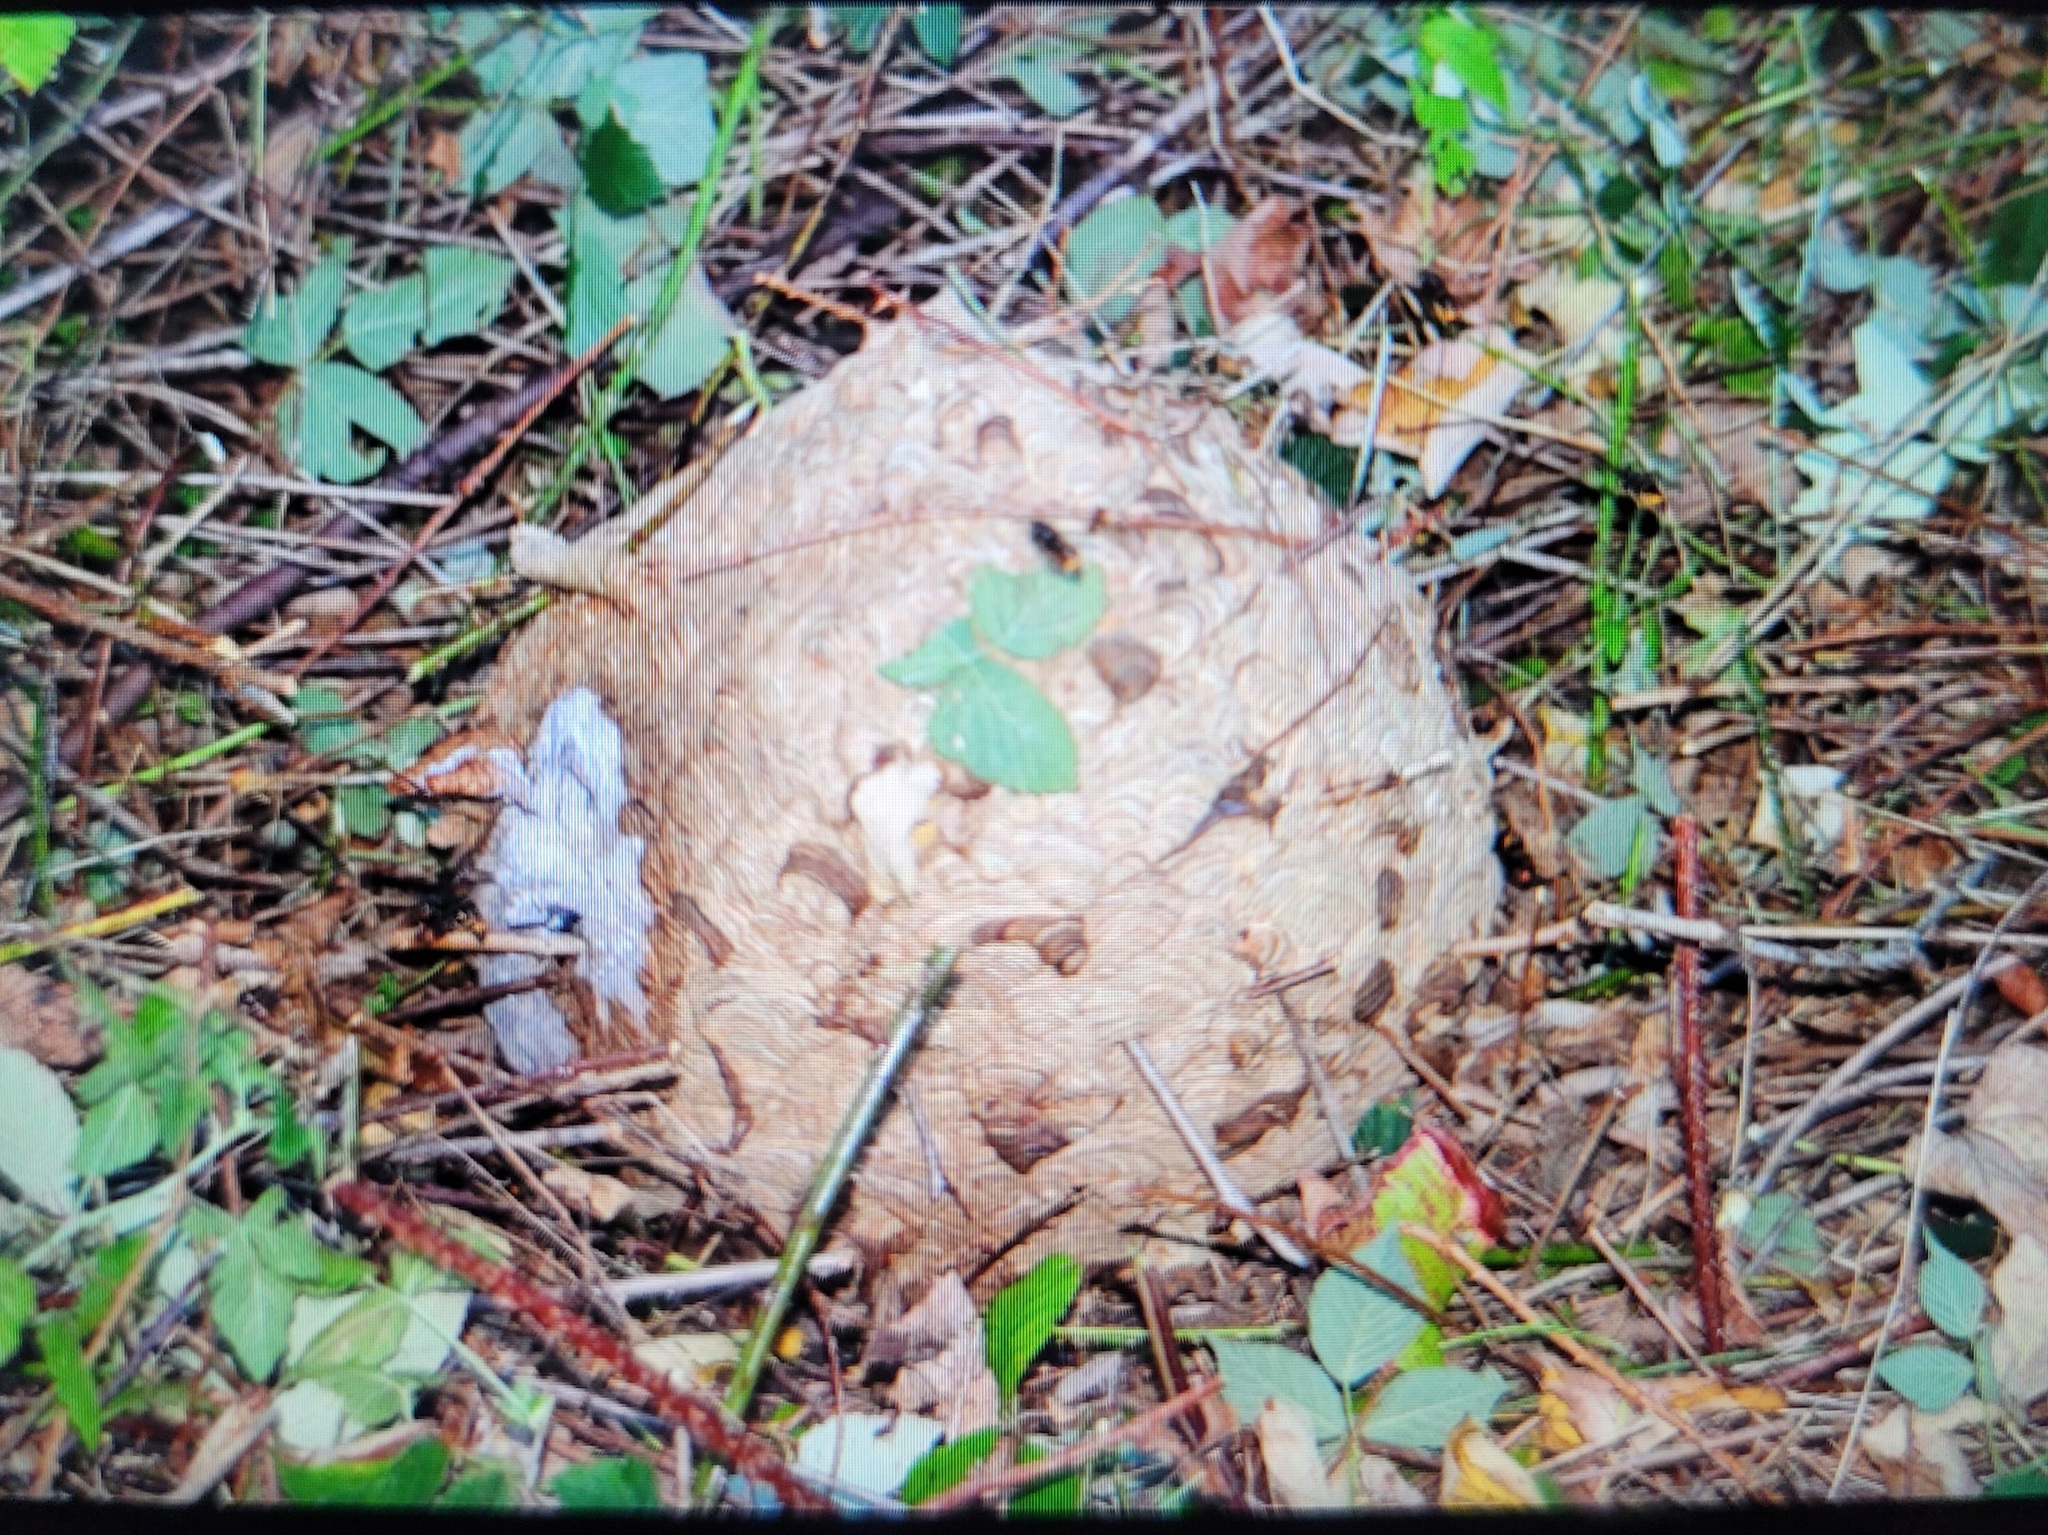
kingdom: Animalia
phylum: Arthropoda
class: Insecta
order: Hymenoptera
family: Vespidae
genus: Vespa
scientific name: Vespa velutina
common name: Asian hornet
